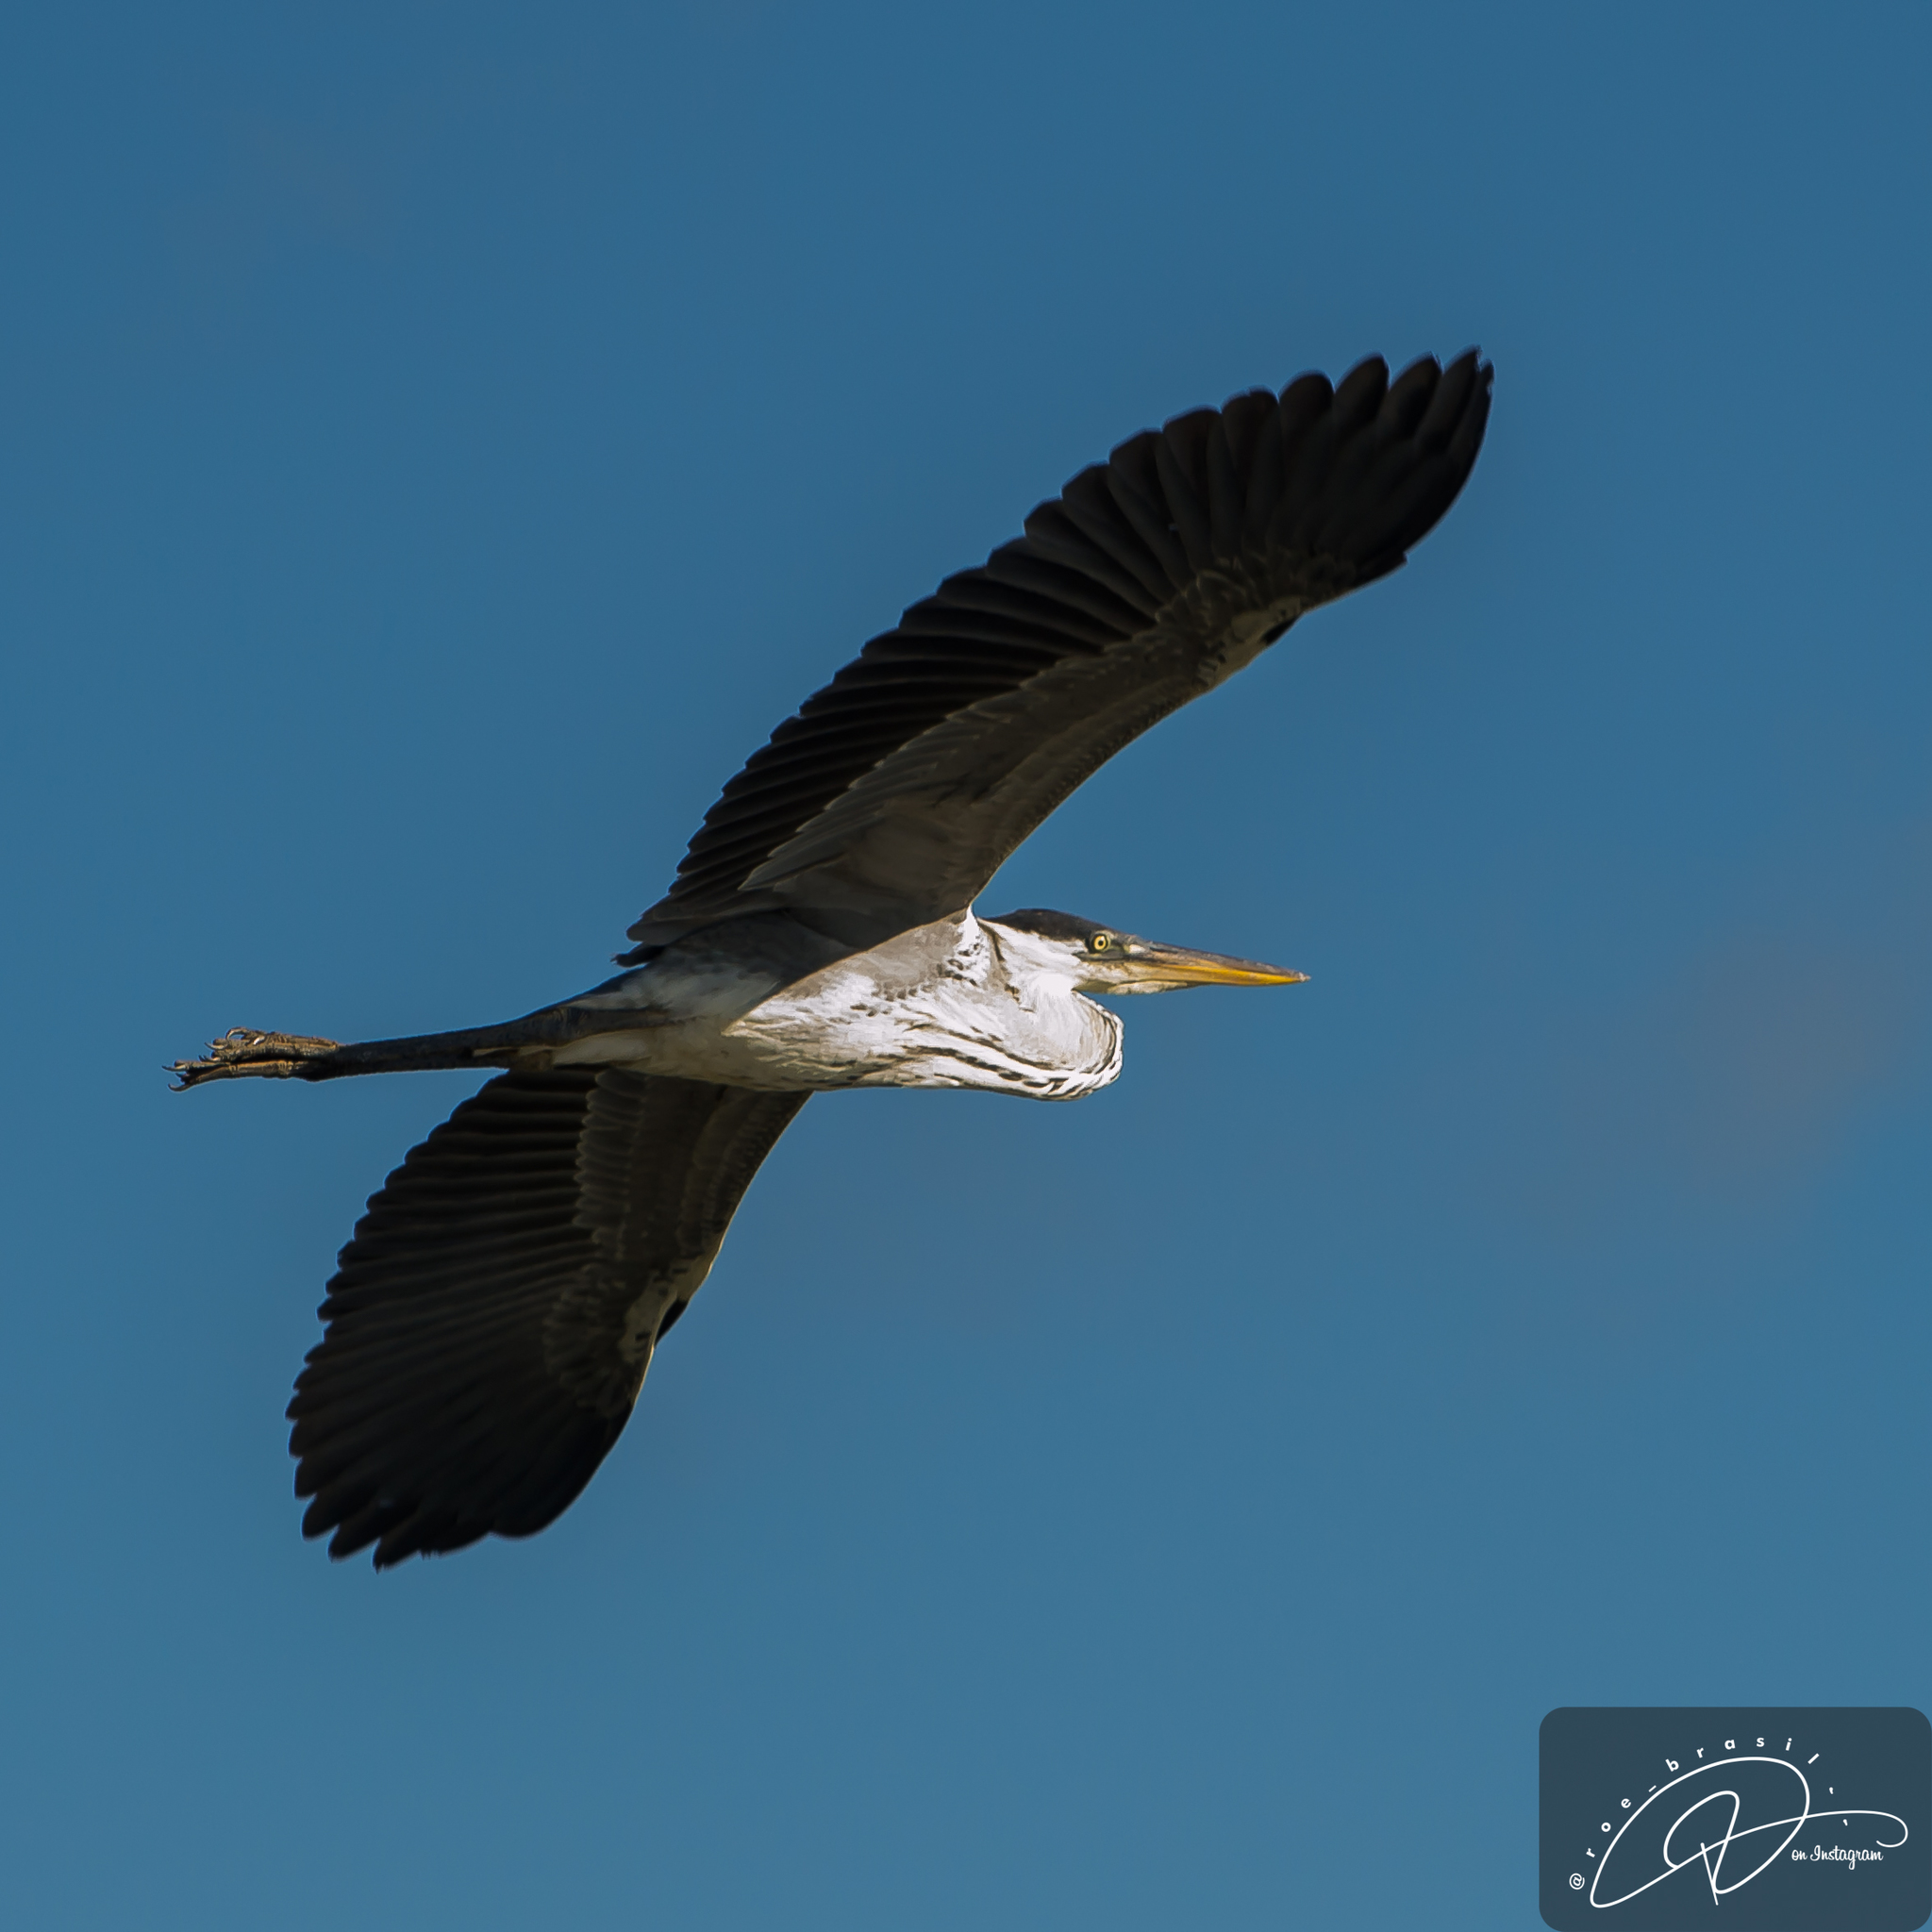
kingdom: Animalia
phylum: Chordata
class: Aves
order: Pelecaniformes
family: Ardeidae
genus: Ardea
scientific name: Ardea cocoi
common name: Cocoi heron
